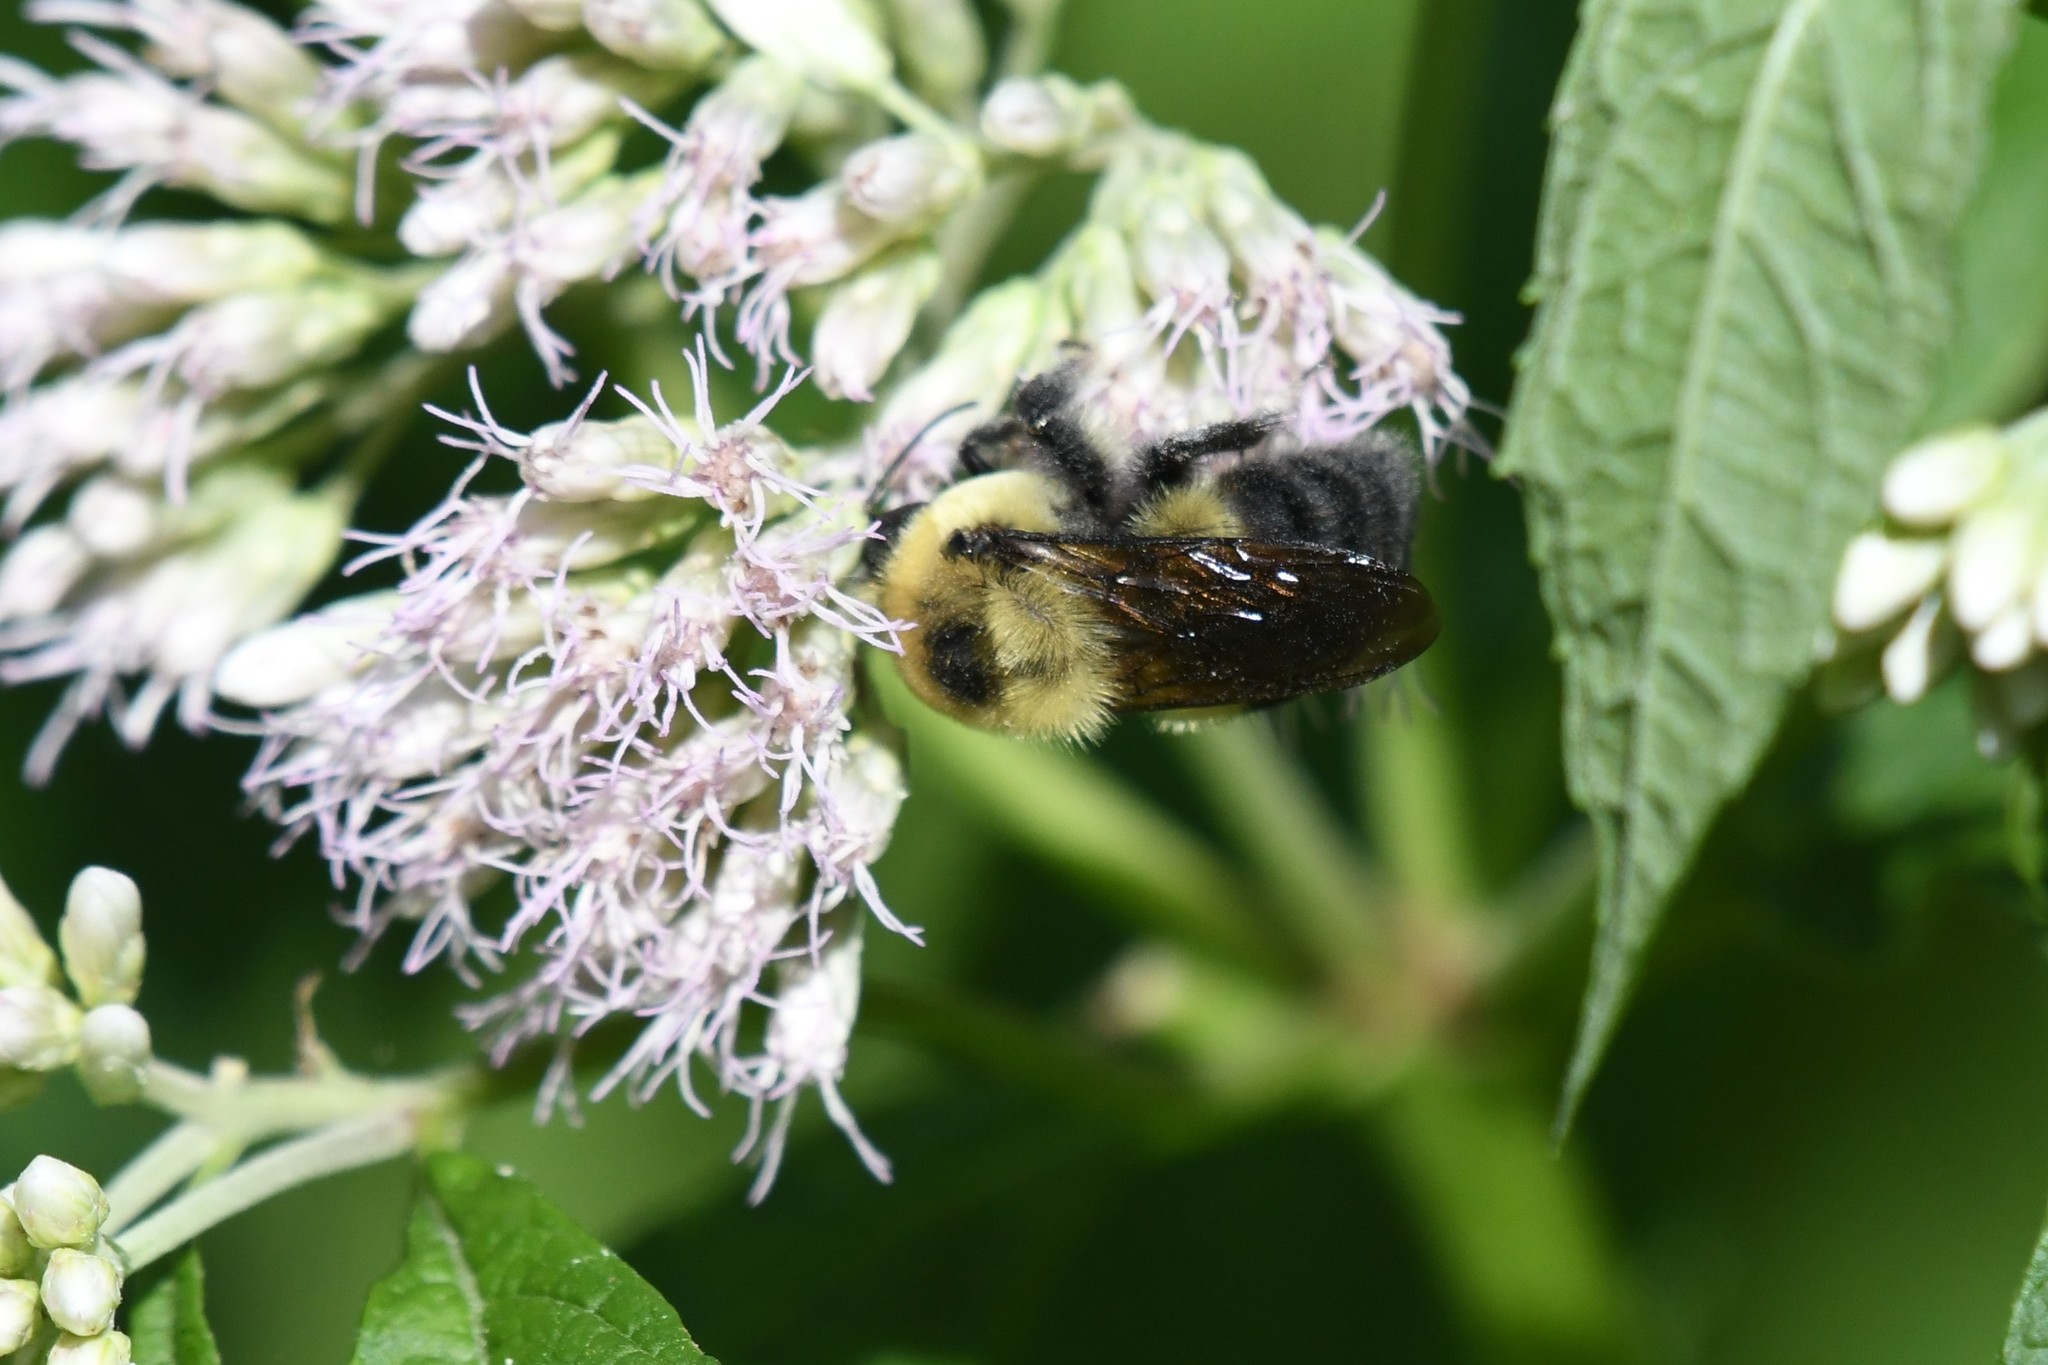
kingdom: Animalia
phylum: Arthropoda
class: Insecta
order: Hymenoptera
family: Apidae
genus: Bombus
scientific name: Bombus griseocollis
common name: Brown-belted bumble bee
